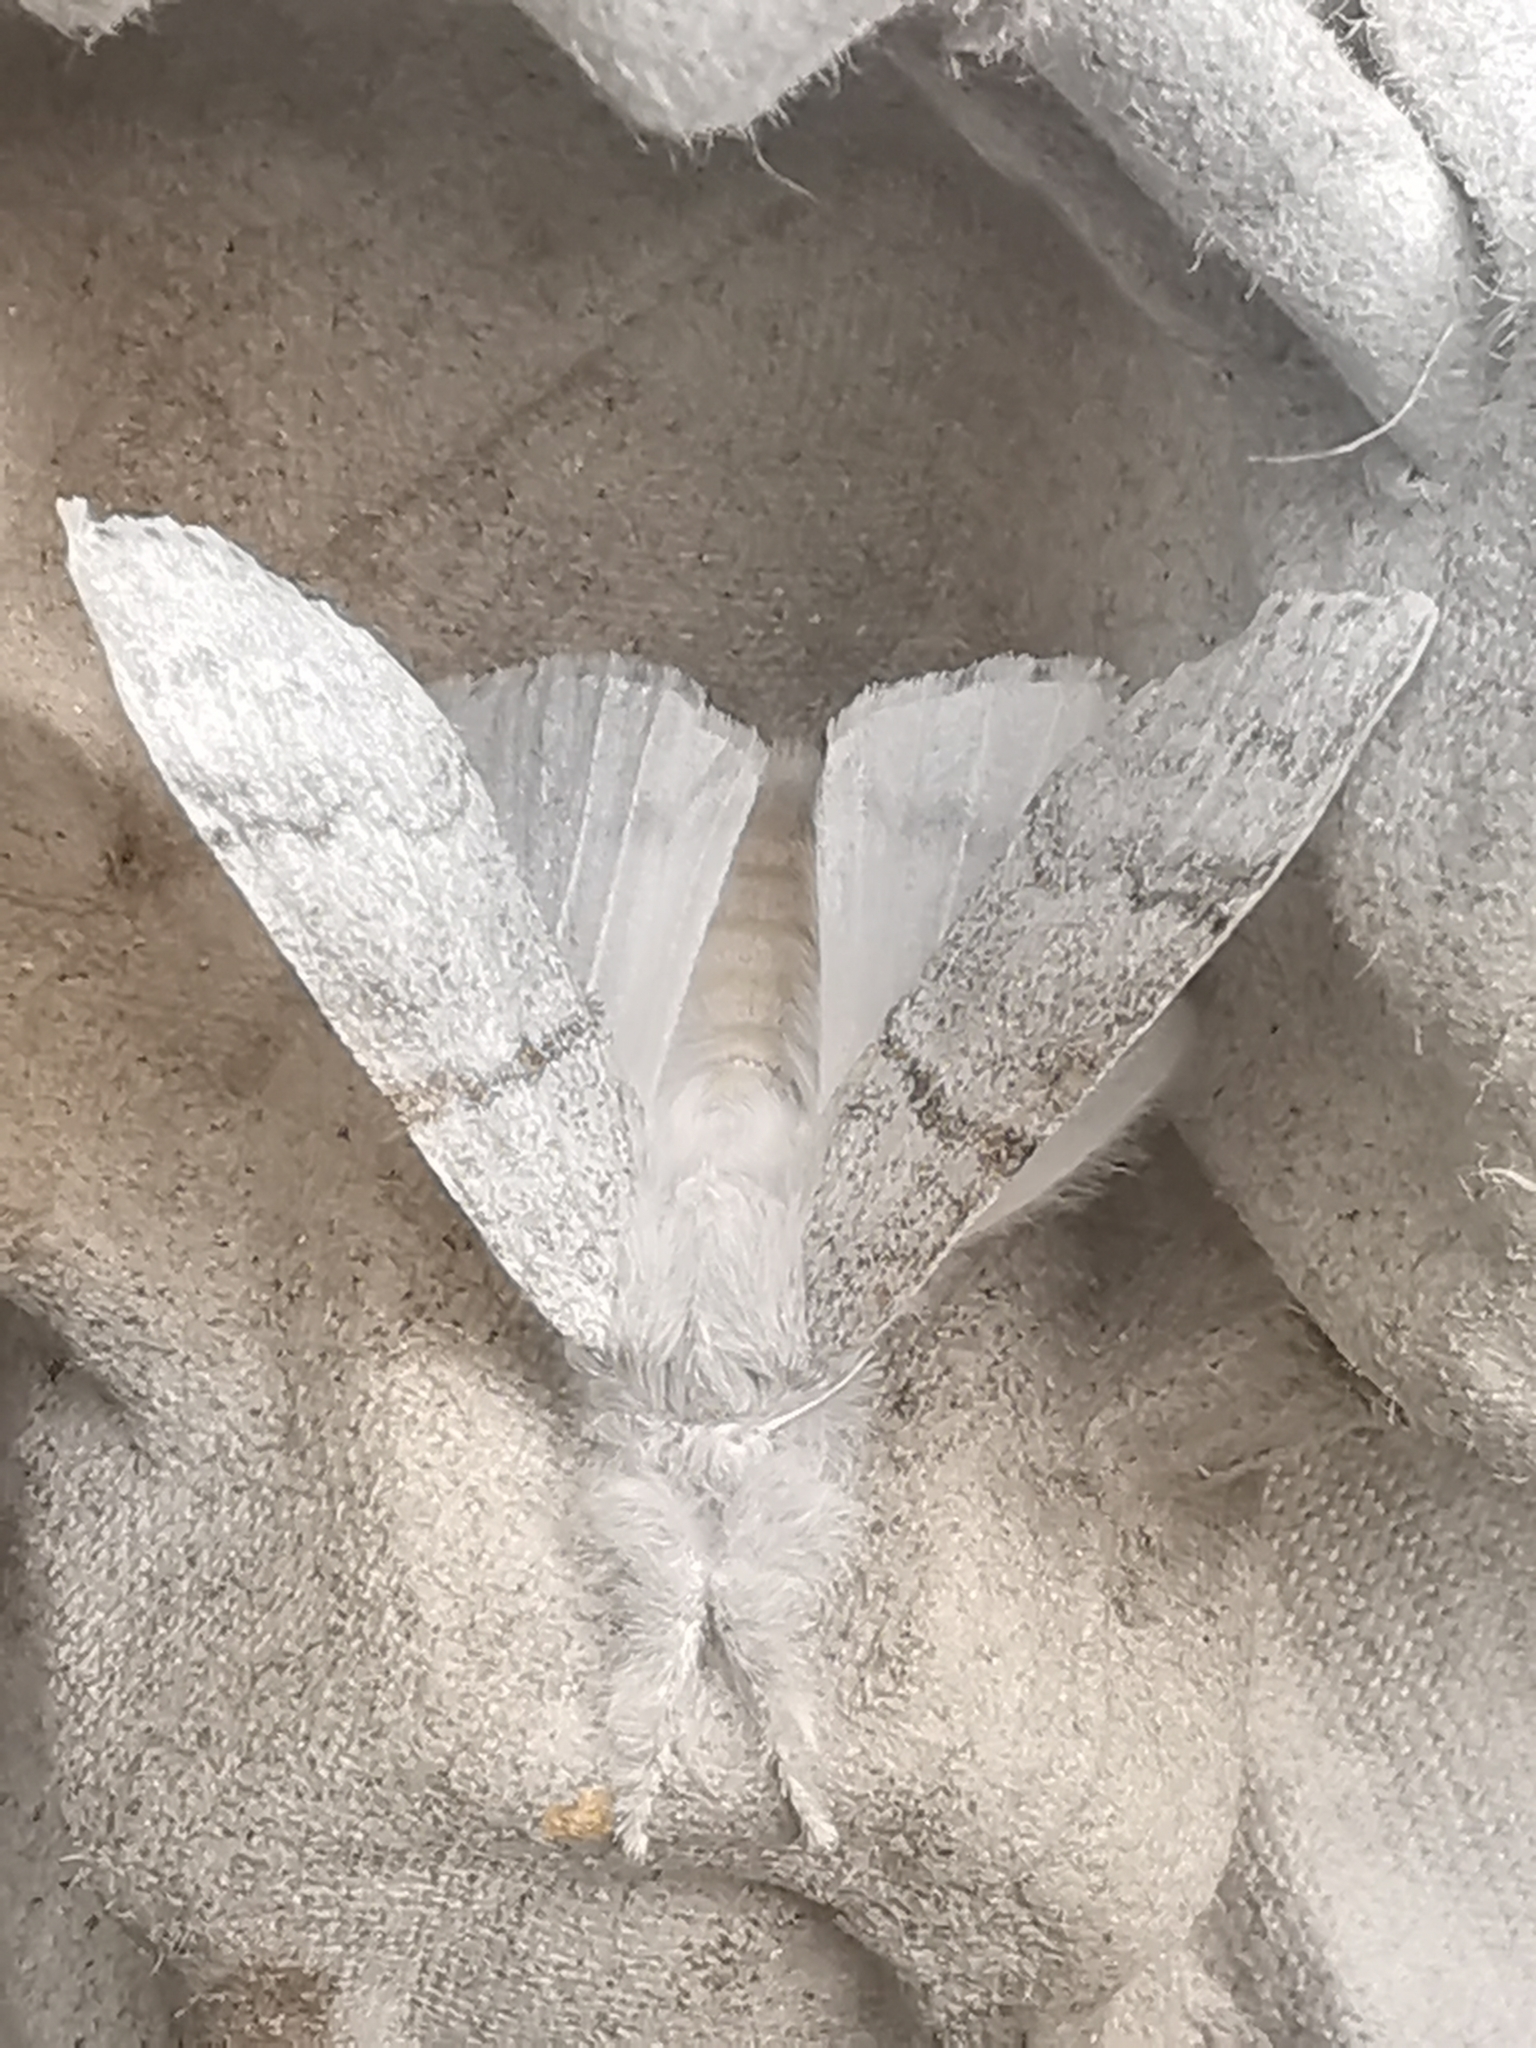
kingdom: Animalia
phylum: Arthropoda
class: Insecta
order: Lepidoptera
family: Erebidae
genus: Calliteara
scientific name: Calliteara pudibunda
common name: Pale tussock
